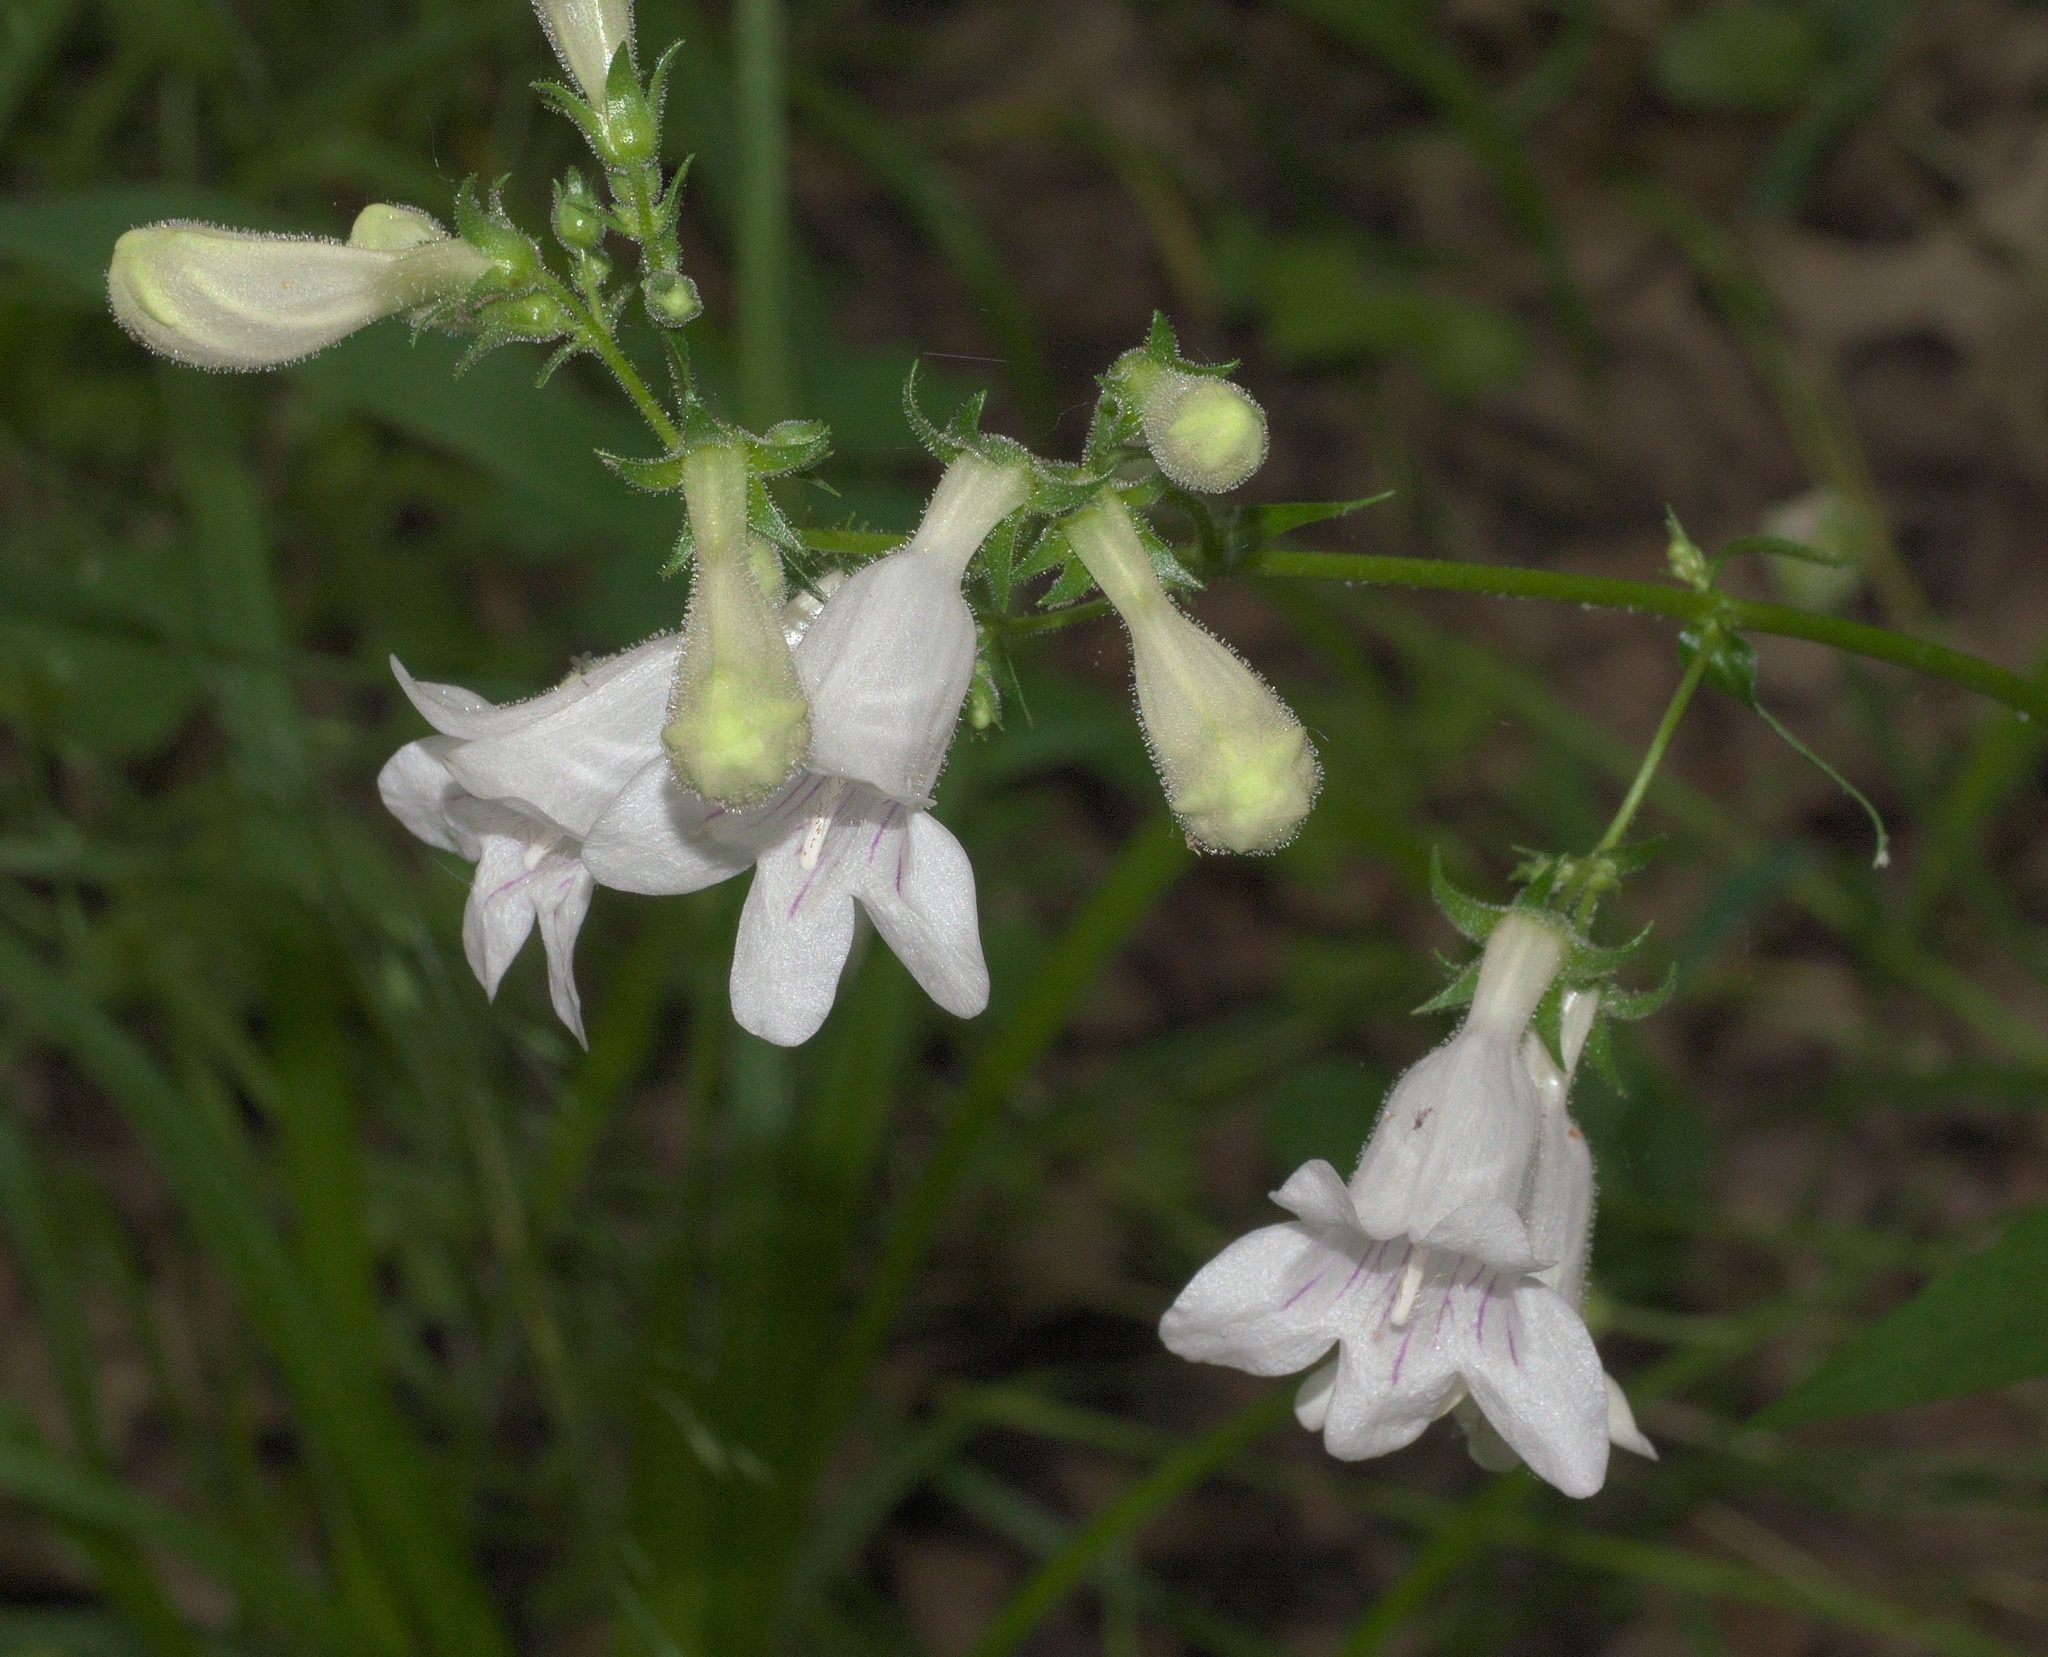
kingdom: Plantae
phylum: Tracheophyta
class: Magnoliopsida
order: Lamiales
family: Plantaginaceae
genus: Penstemon
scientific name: Penstemon digitalis
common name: Foxglove beardtongue
